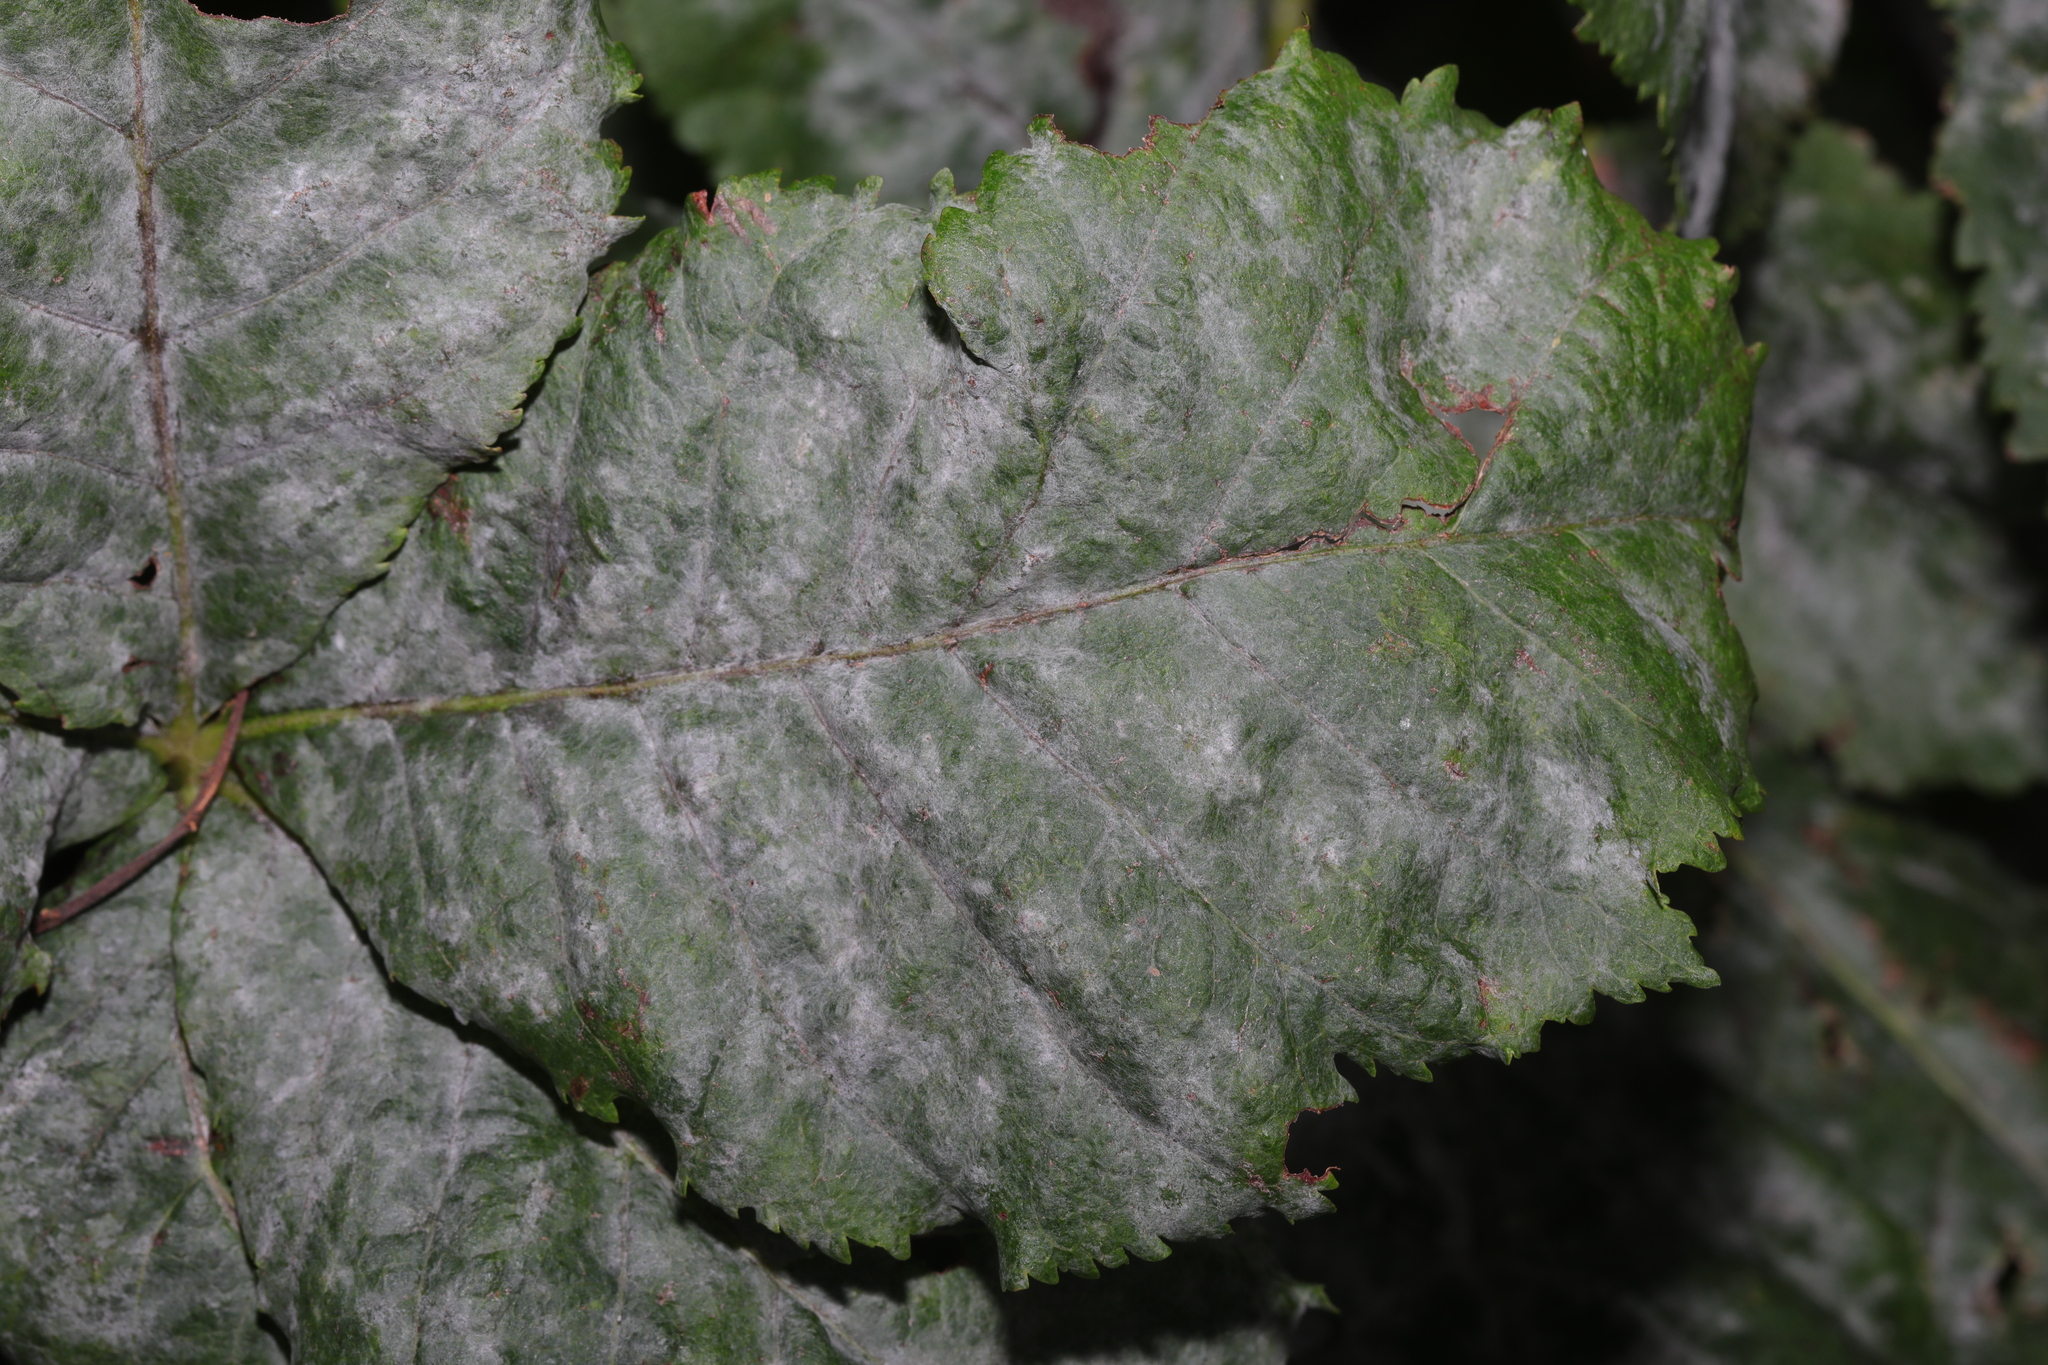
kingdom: Fungi
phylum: Ascomycota
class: Leotiomycetes
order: Helotiales
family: Erysiphaceae
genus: Erysiphe
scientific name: Erysiphe flexuosa
